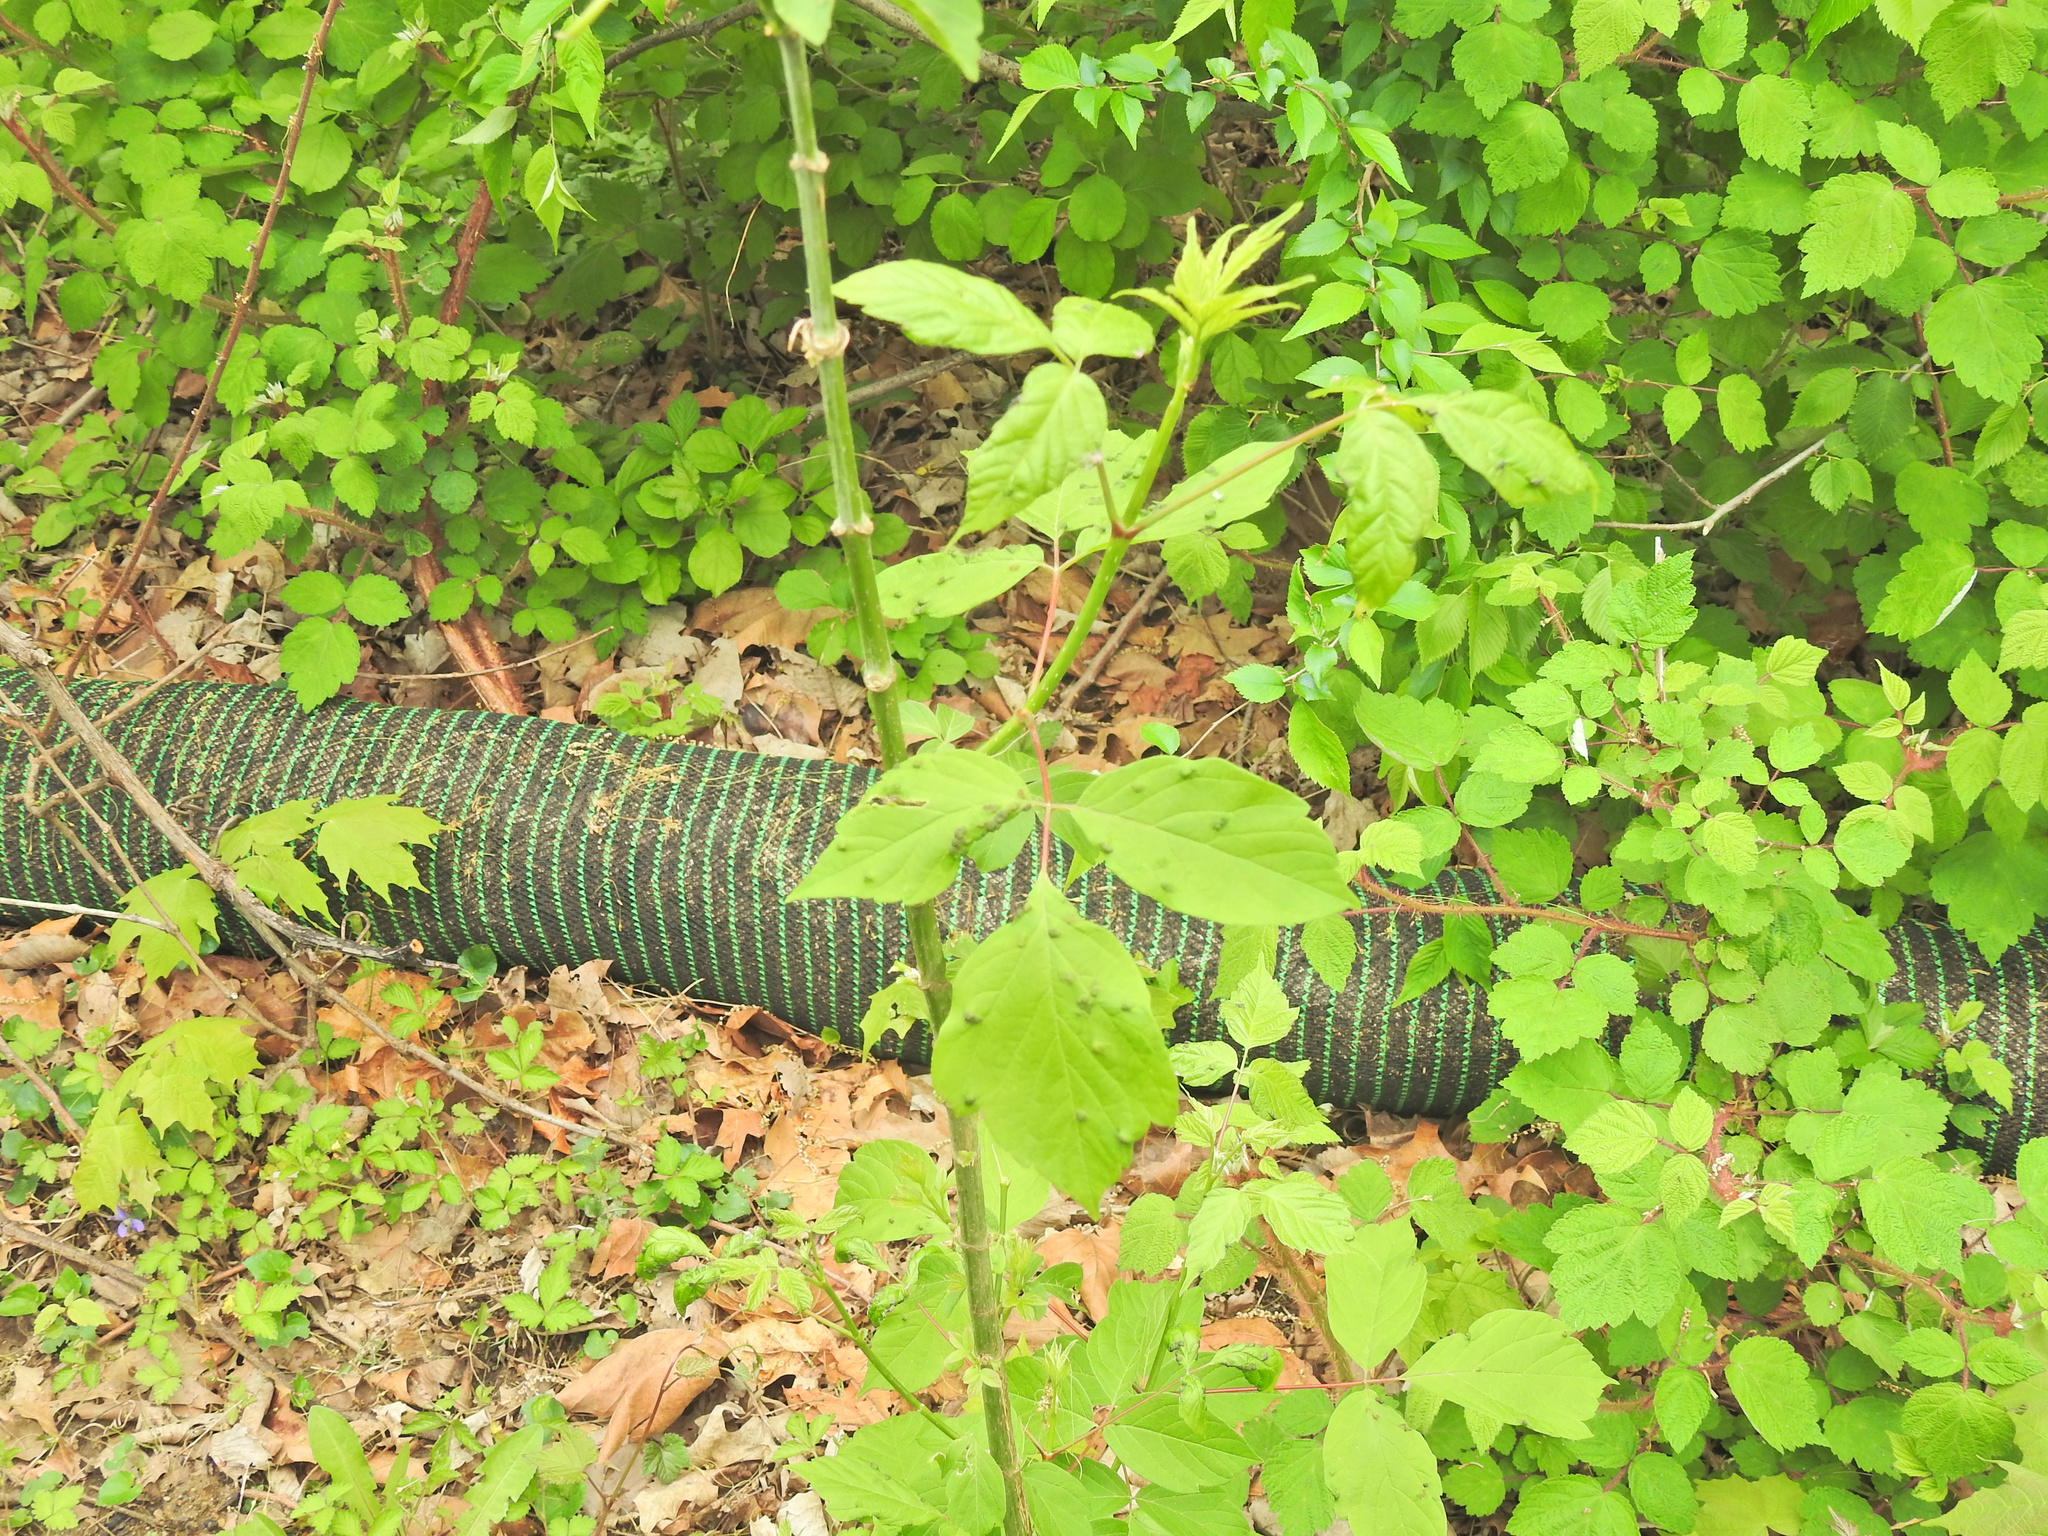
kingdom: Plantae
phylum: Tracheophyta
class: Magnoliopsida
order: Sapindales
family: Sapindaceae
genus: Acer
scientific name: Acer negundo
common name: Ashleaf maple
